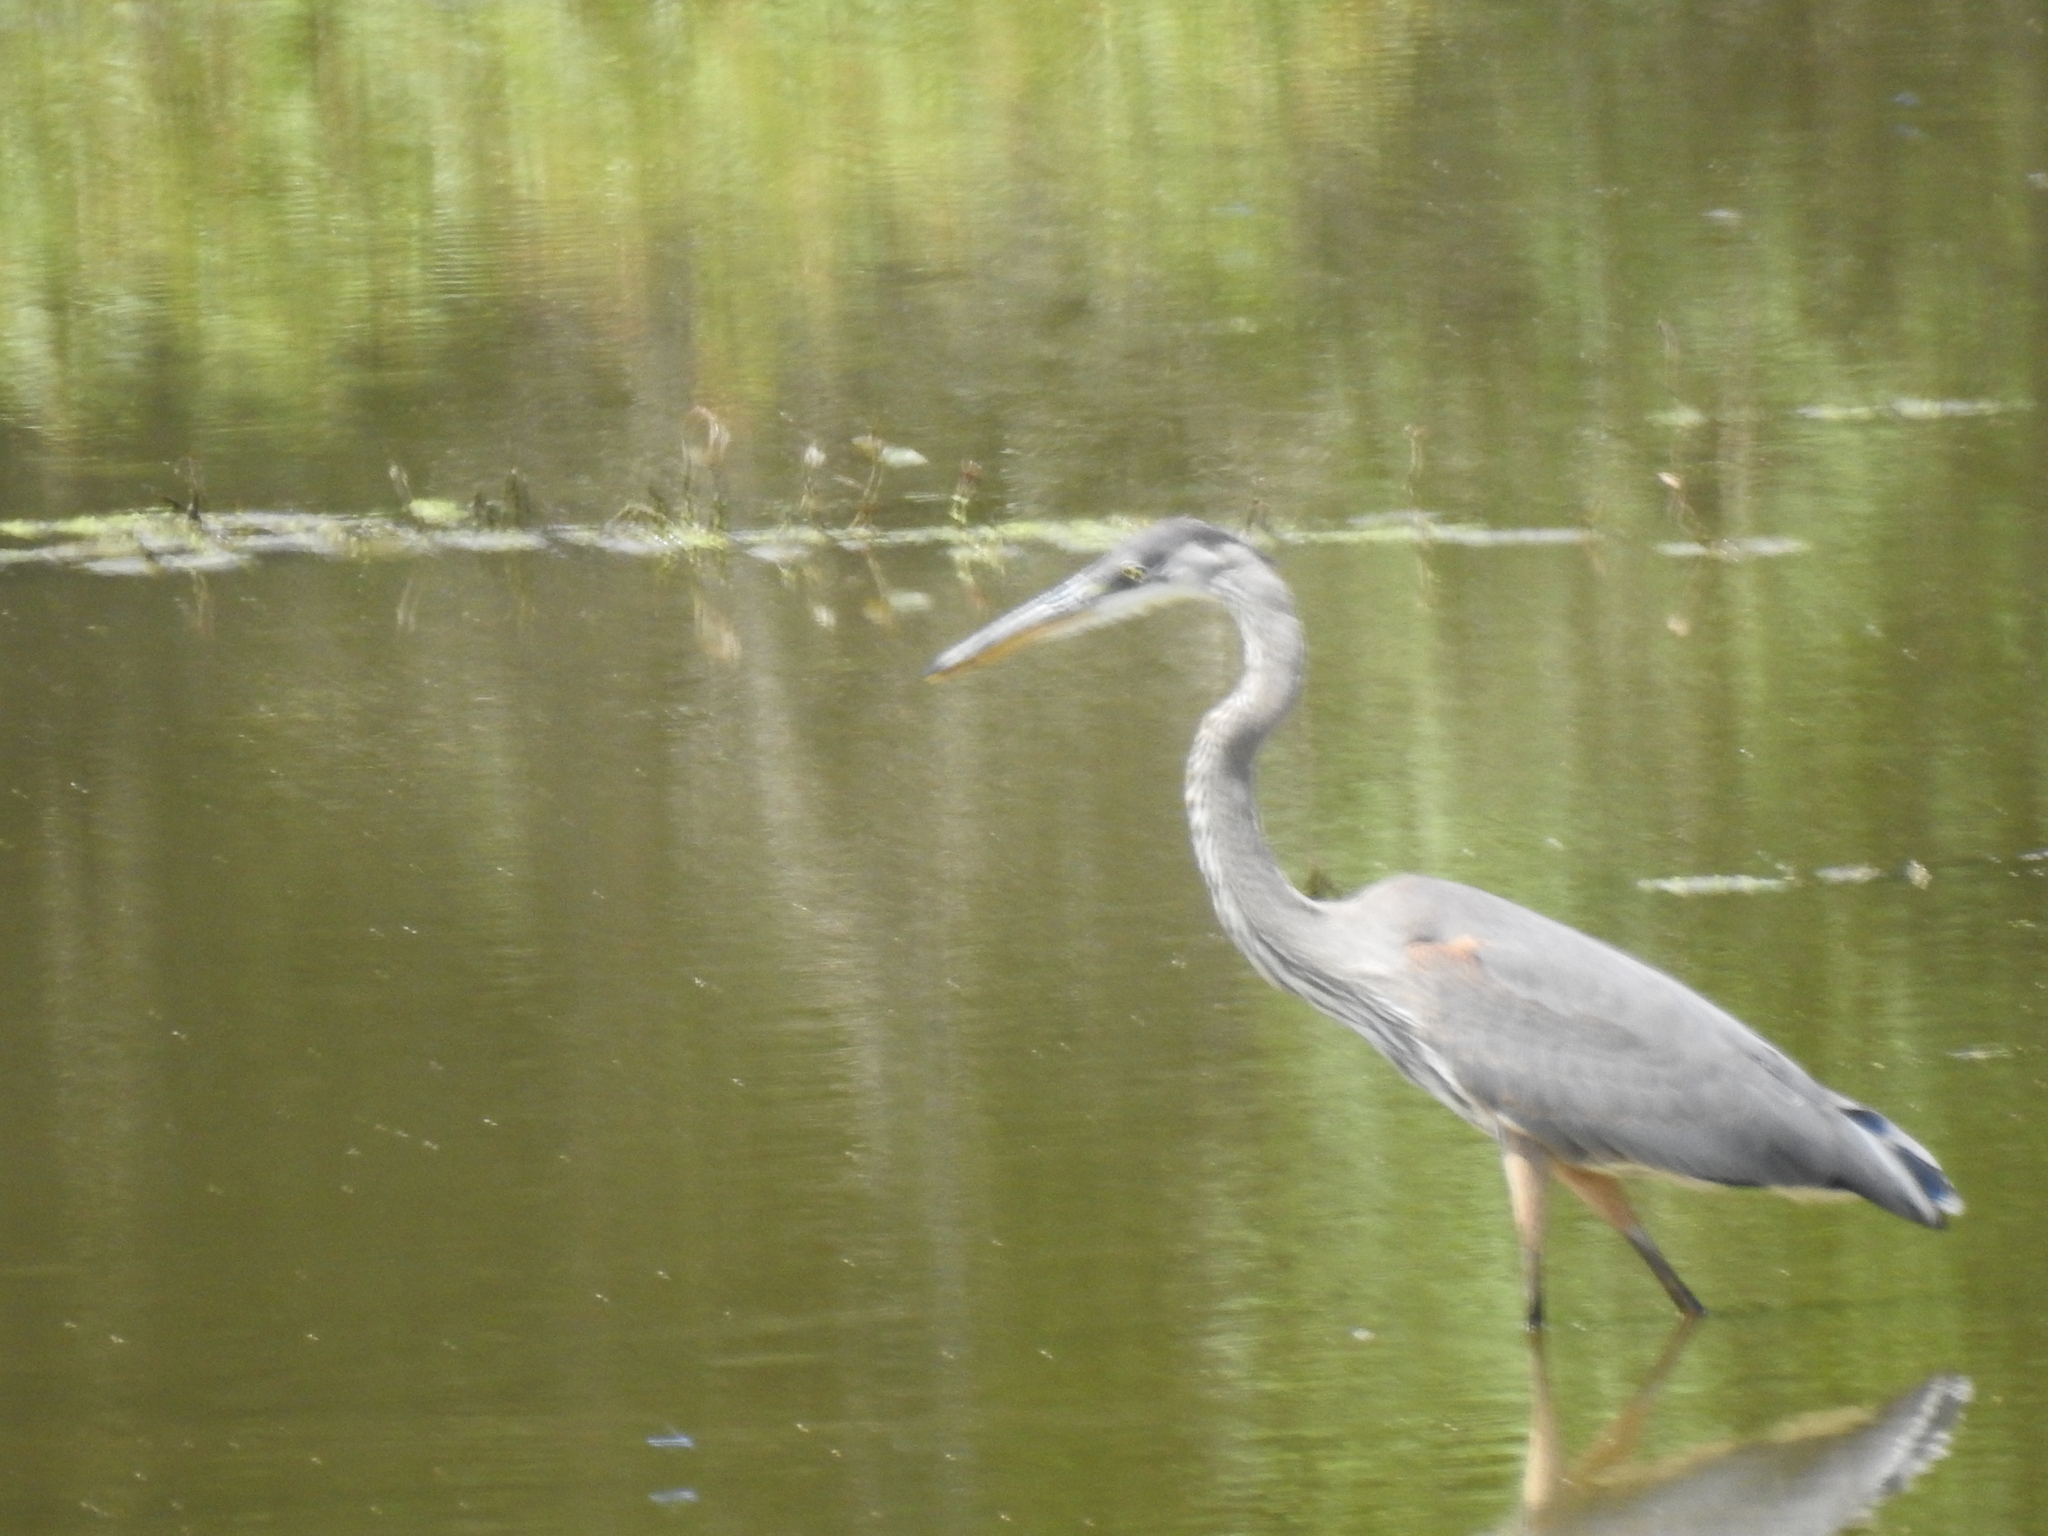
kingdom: Animalia
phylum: Chordata
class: Aves
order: Pelecaniformes
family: Ardeidae
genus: Ardea
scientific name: Ardea herodias
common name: Great blue heron
